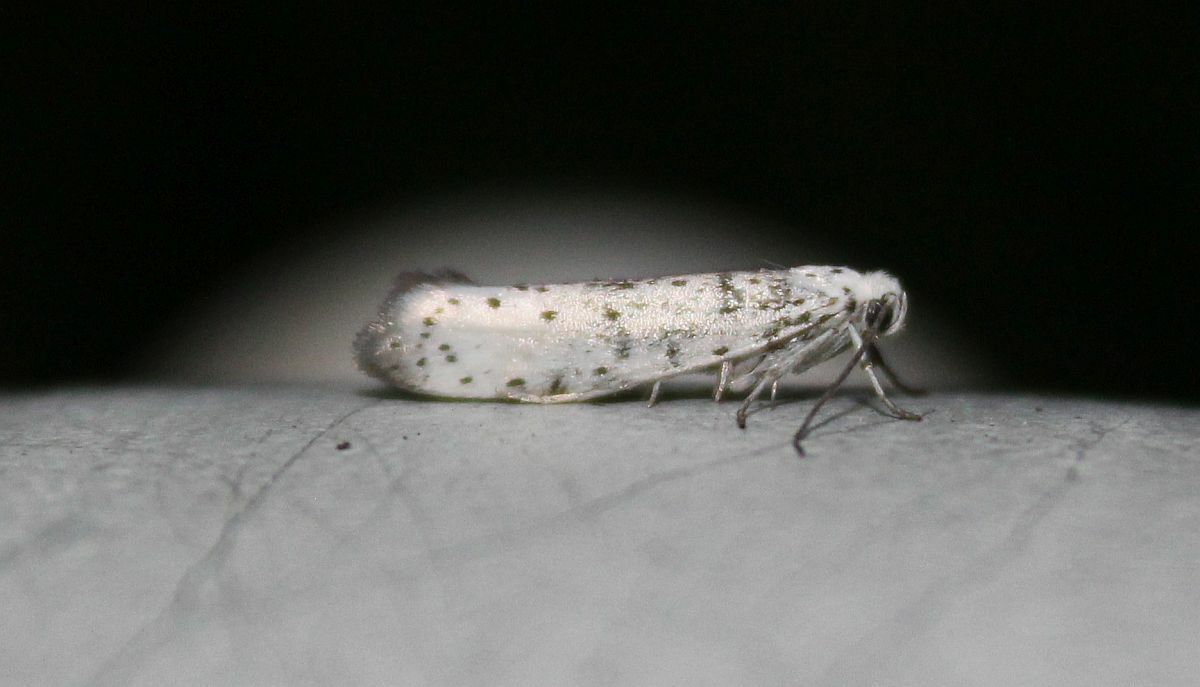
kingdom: Animalia
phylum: Arthropoda
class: Insecta
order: Lepidoptera
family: Yponomeutidae
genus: Yponomeuta
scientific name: Yponomeuta
